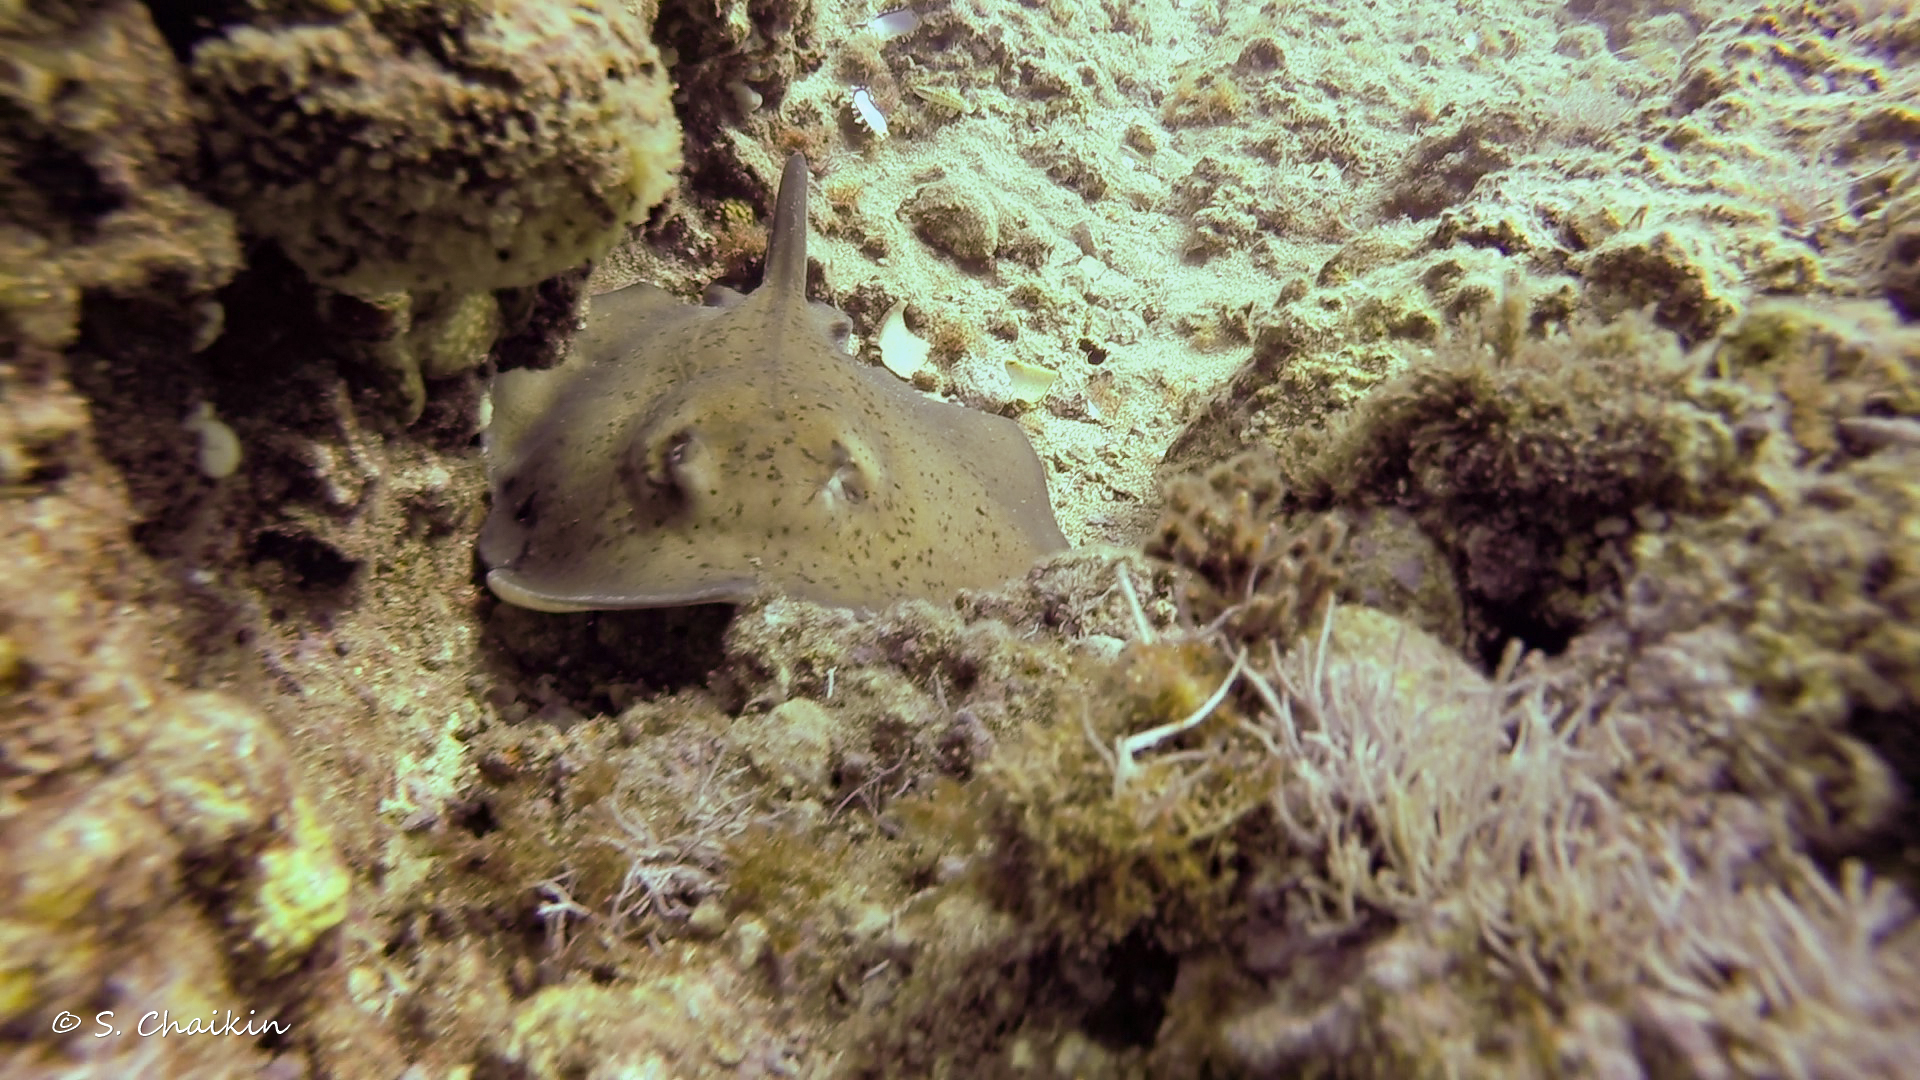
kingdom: Animalia
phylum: Chordata
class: Elasmobranchii
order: Myliobatiformes
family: Dasyatidae
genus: Taeniura
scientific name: Taeniura grabata
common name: Round stingray
